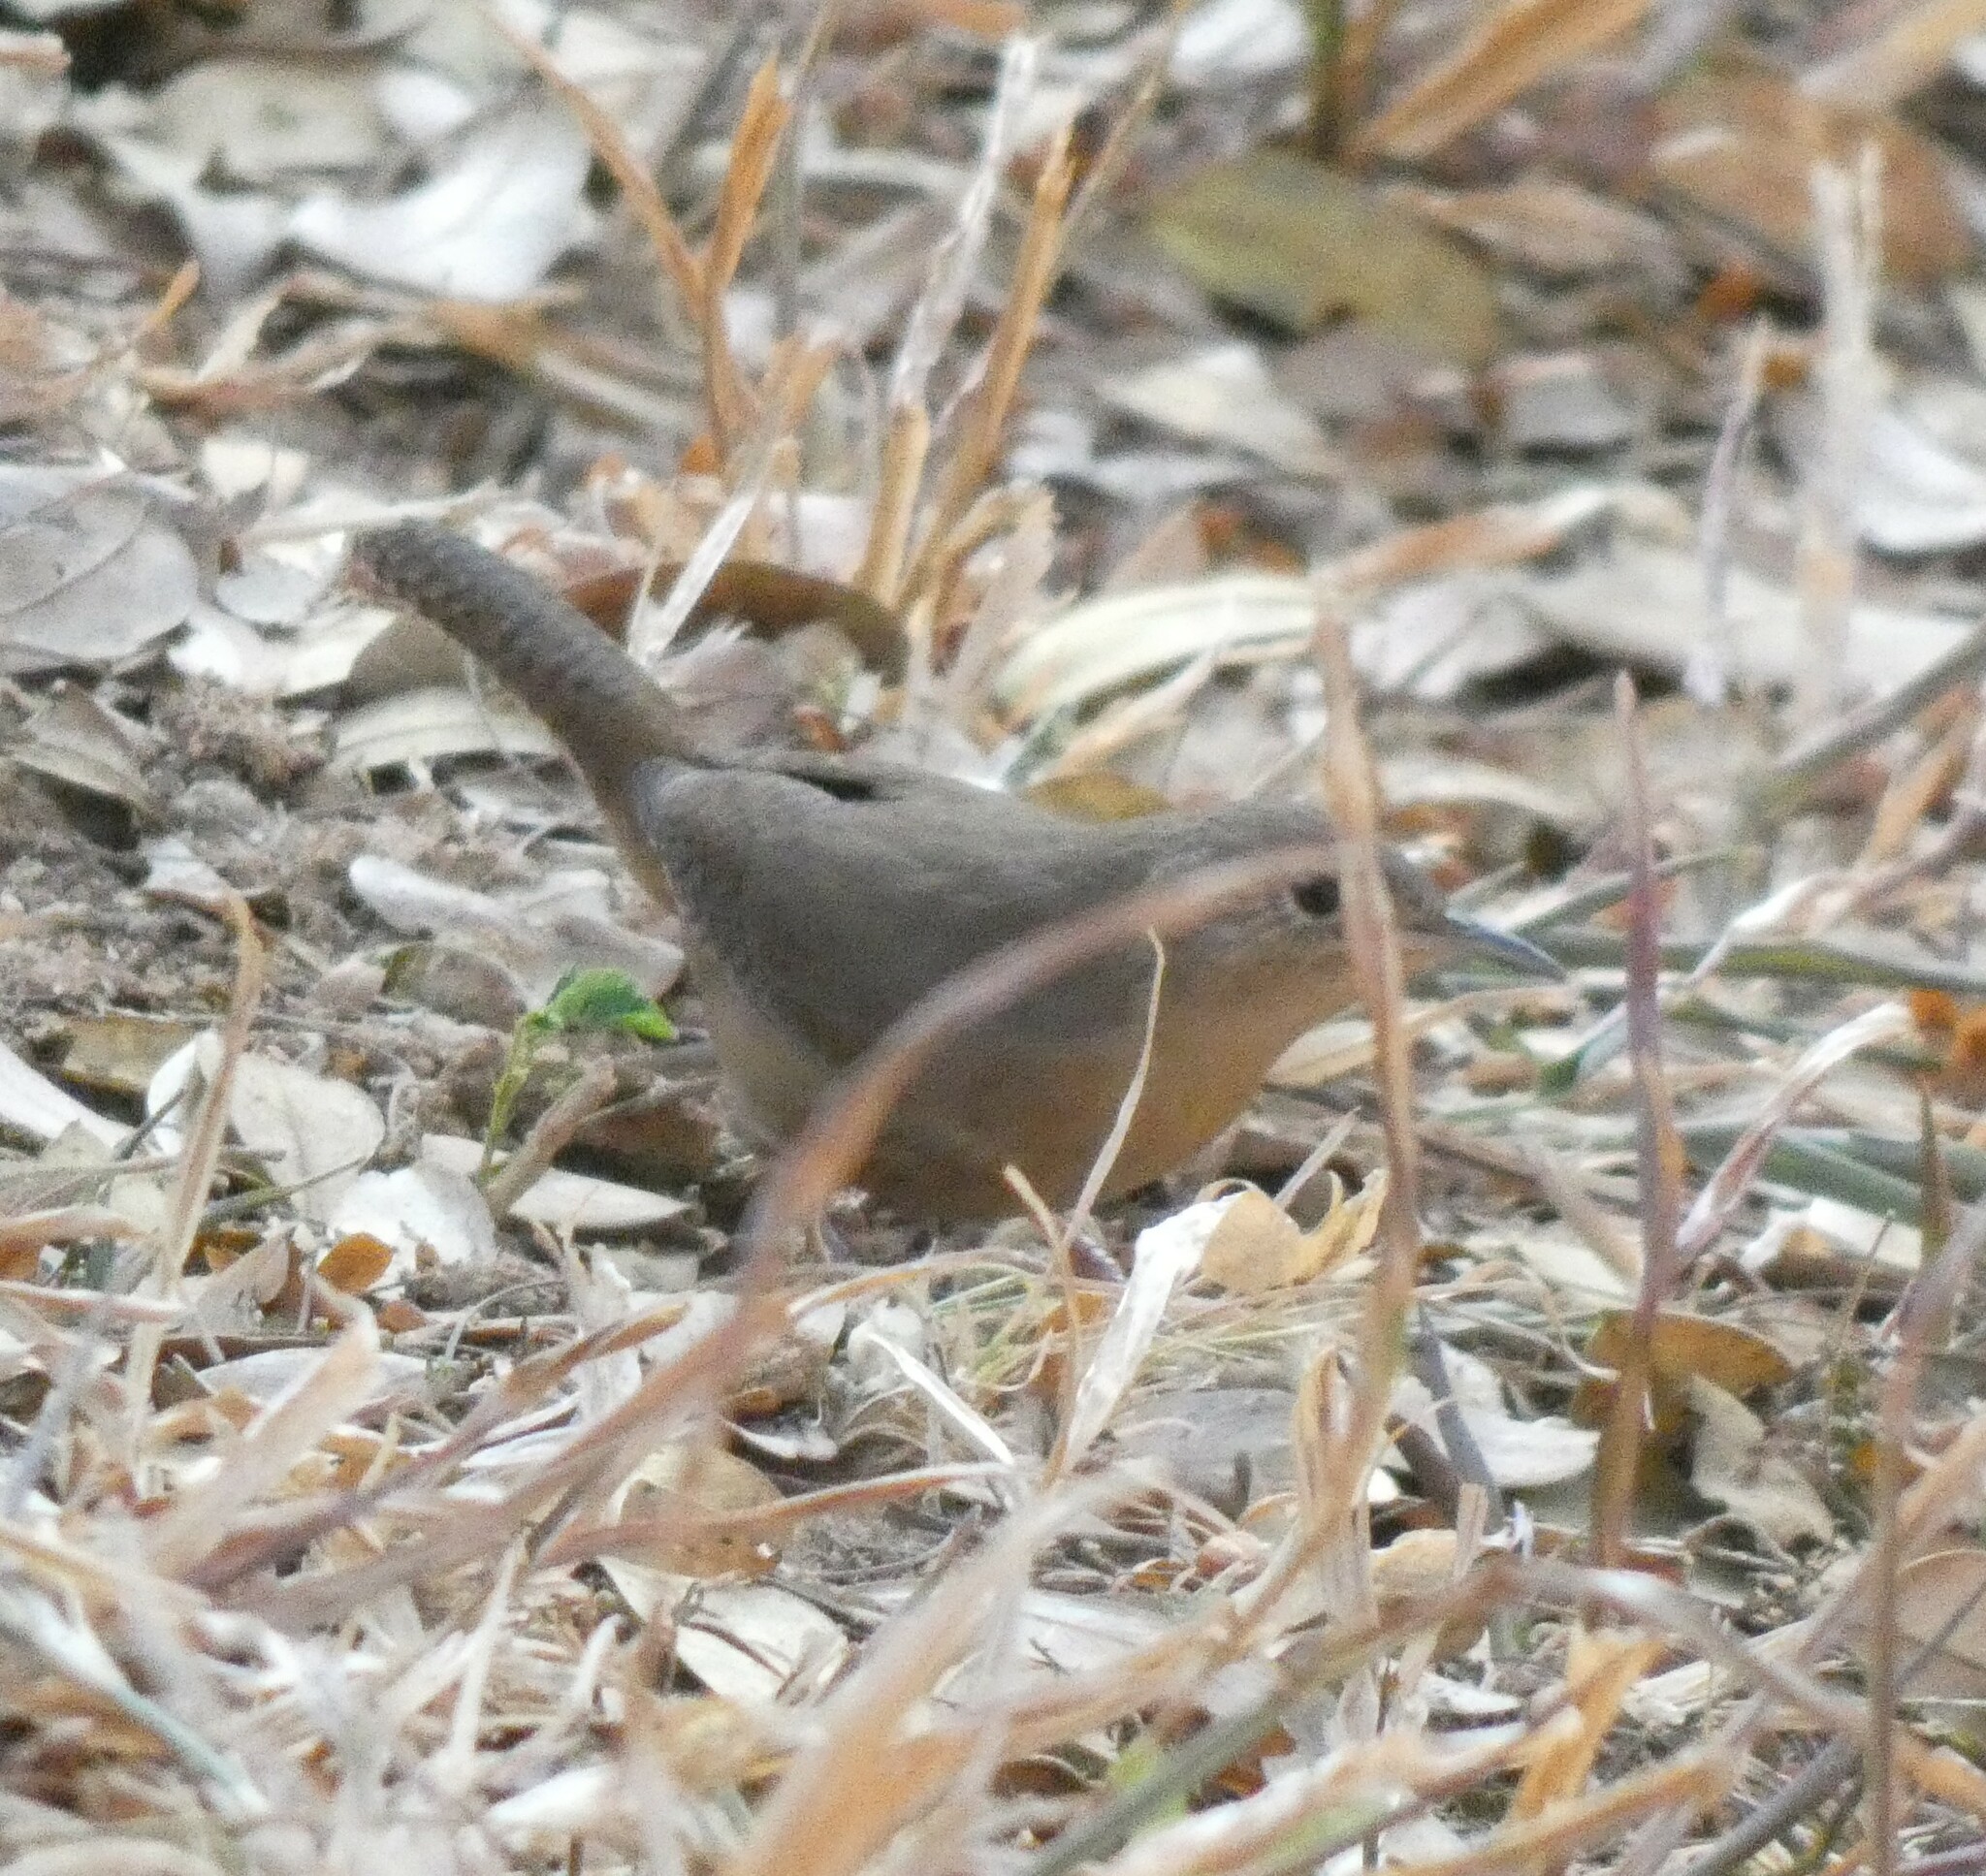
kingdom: Animalia
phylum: Chordata
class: Aves
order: Passeriformes
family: Troglodytidae
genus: Troglodytes
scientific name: Troglodytes aedon
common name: House wren
